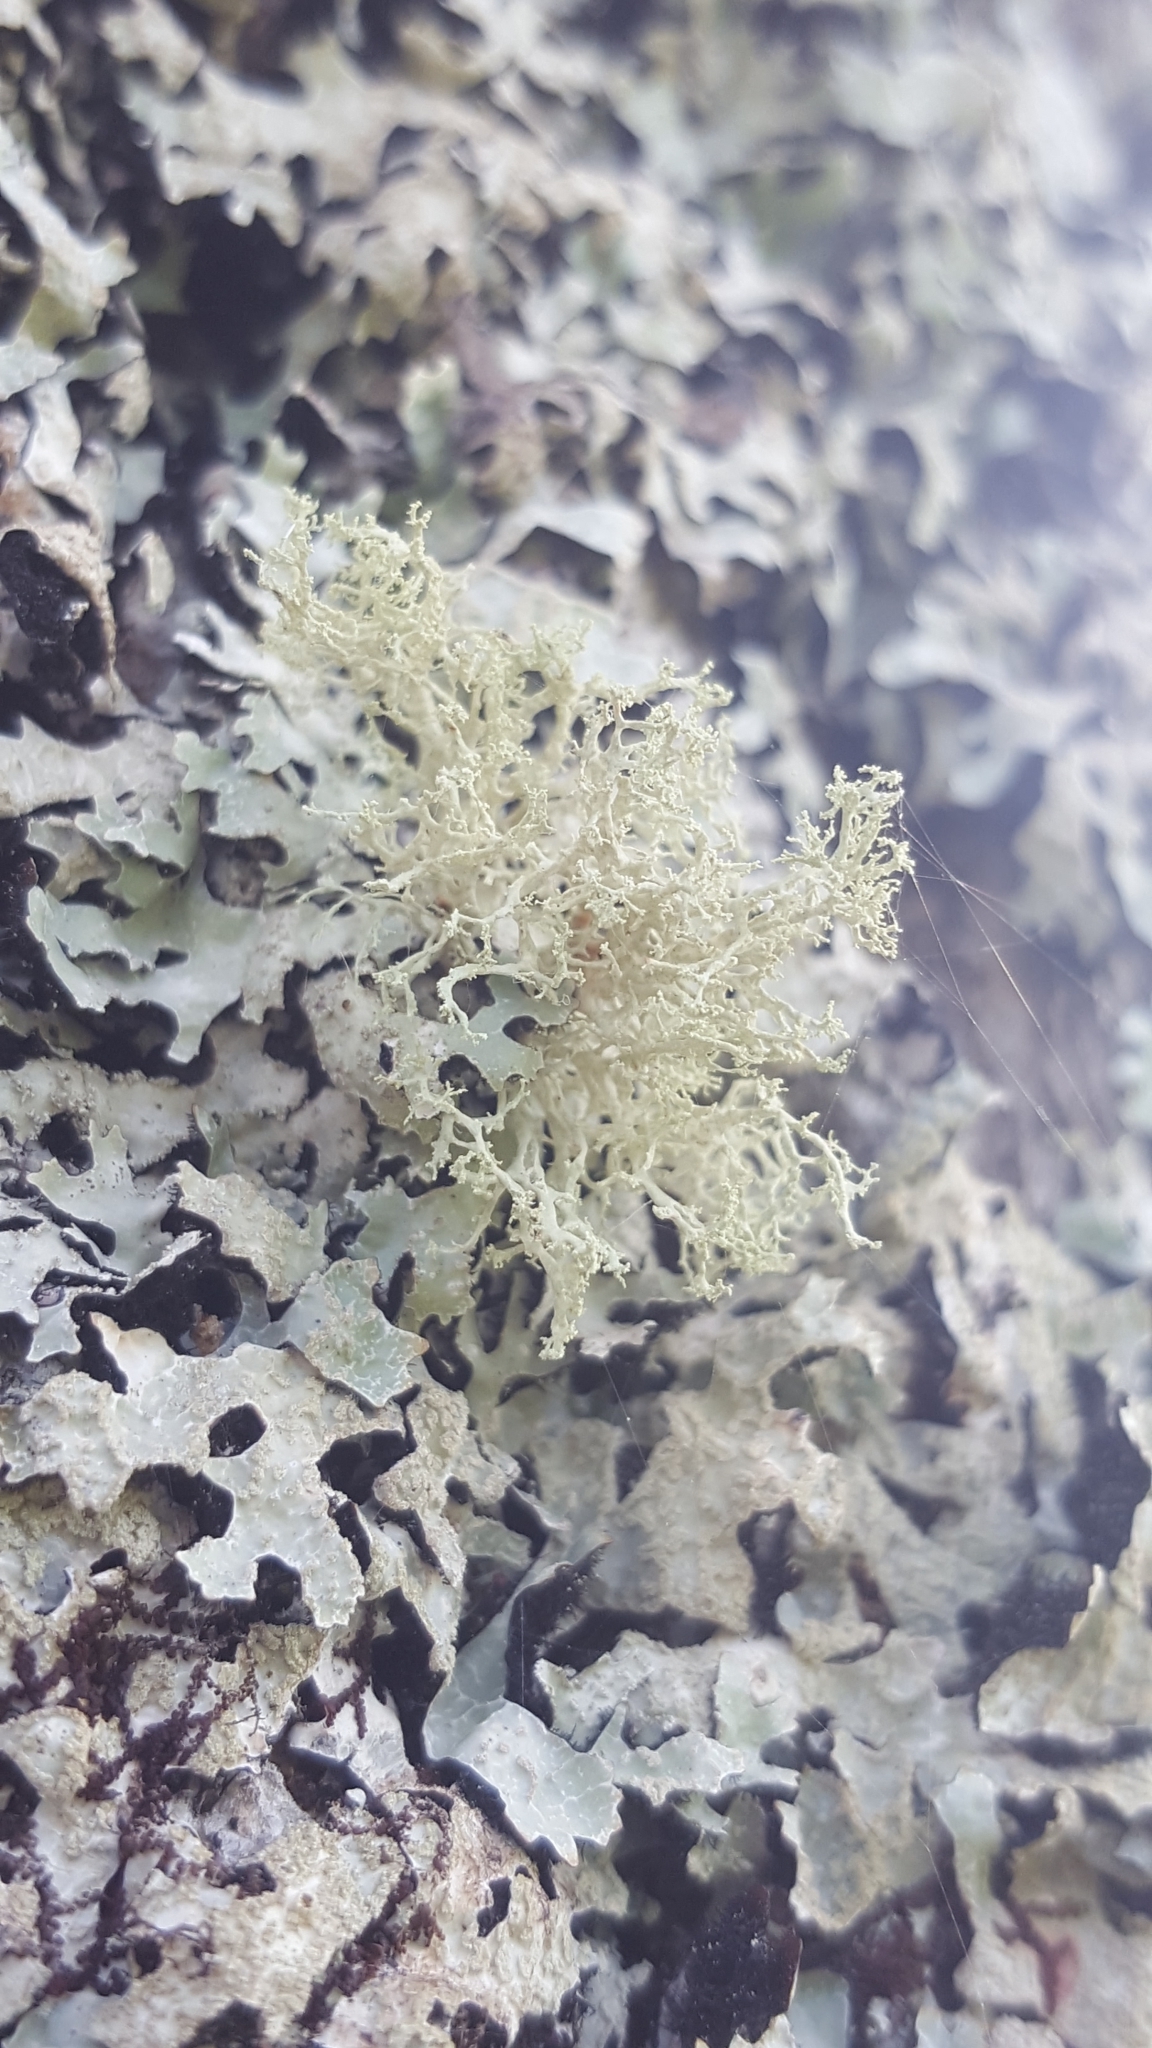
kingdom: Fungi
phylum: Ascomycota
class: Lecanoromycetes
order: Lecanorales
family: Ramalinaceae
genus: Ramalina
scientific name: Ramalina roesleri
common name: Frayed ribbon lichen
